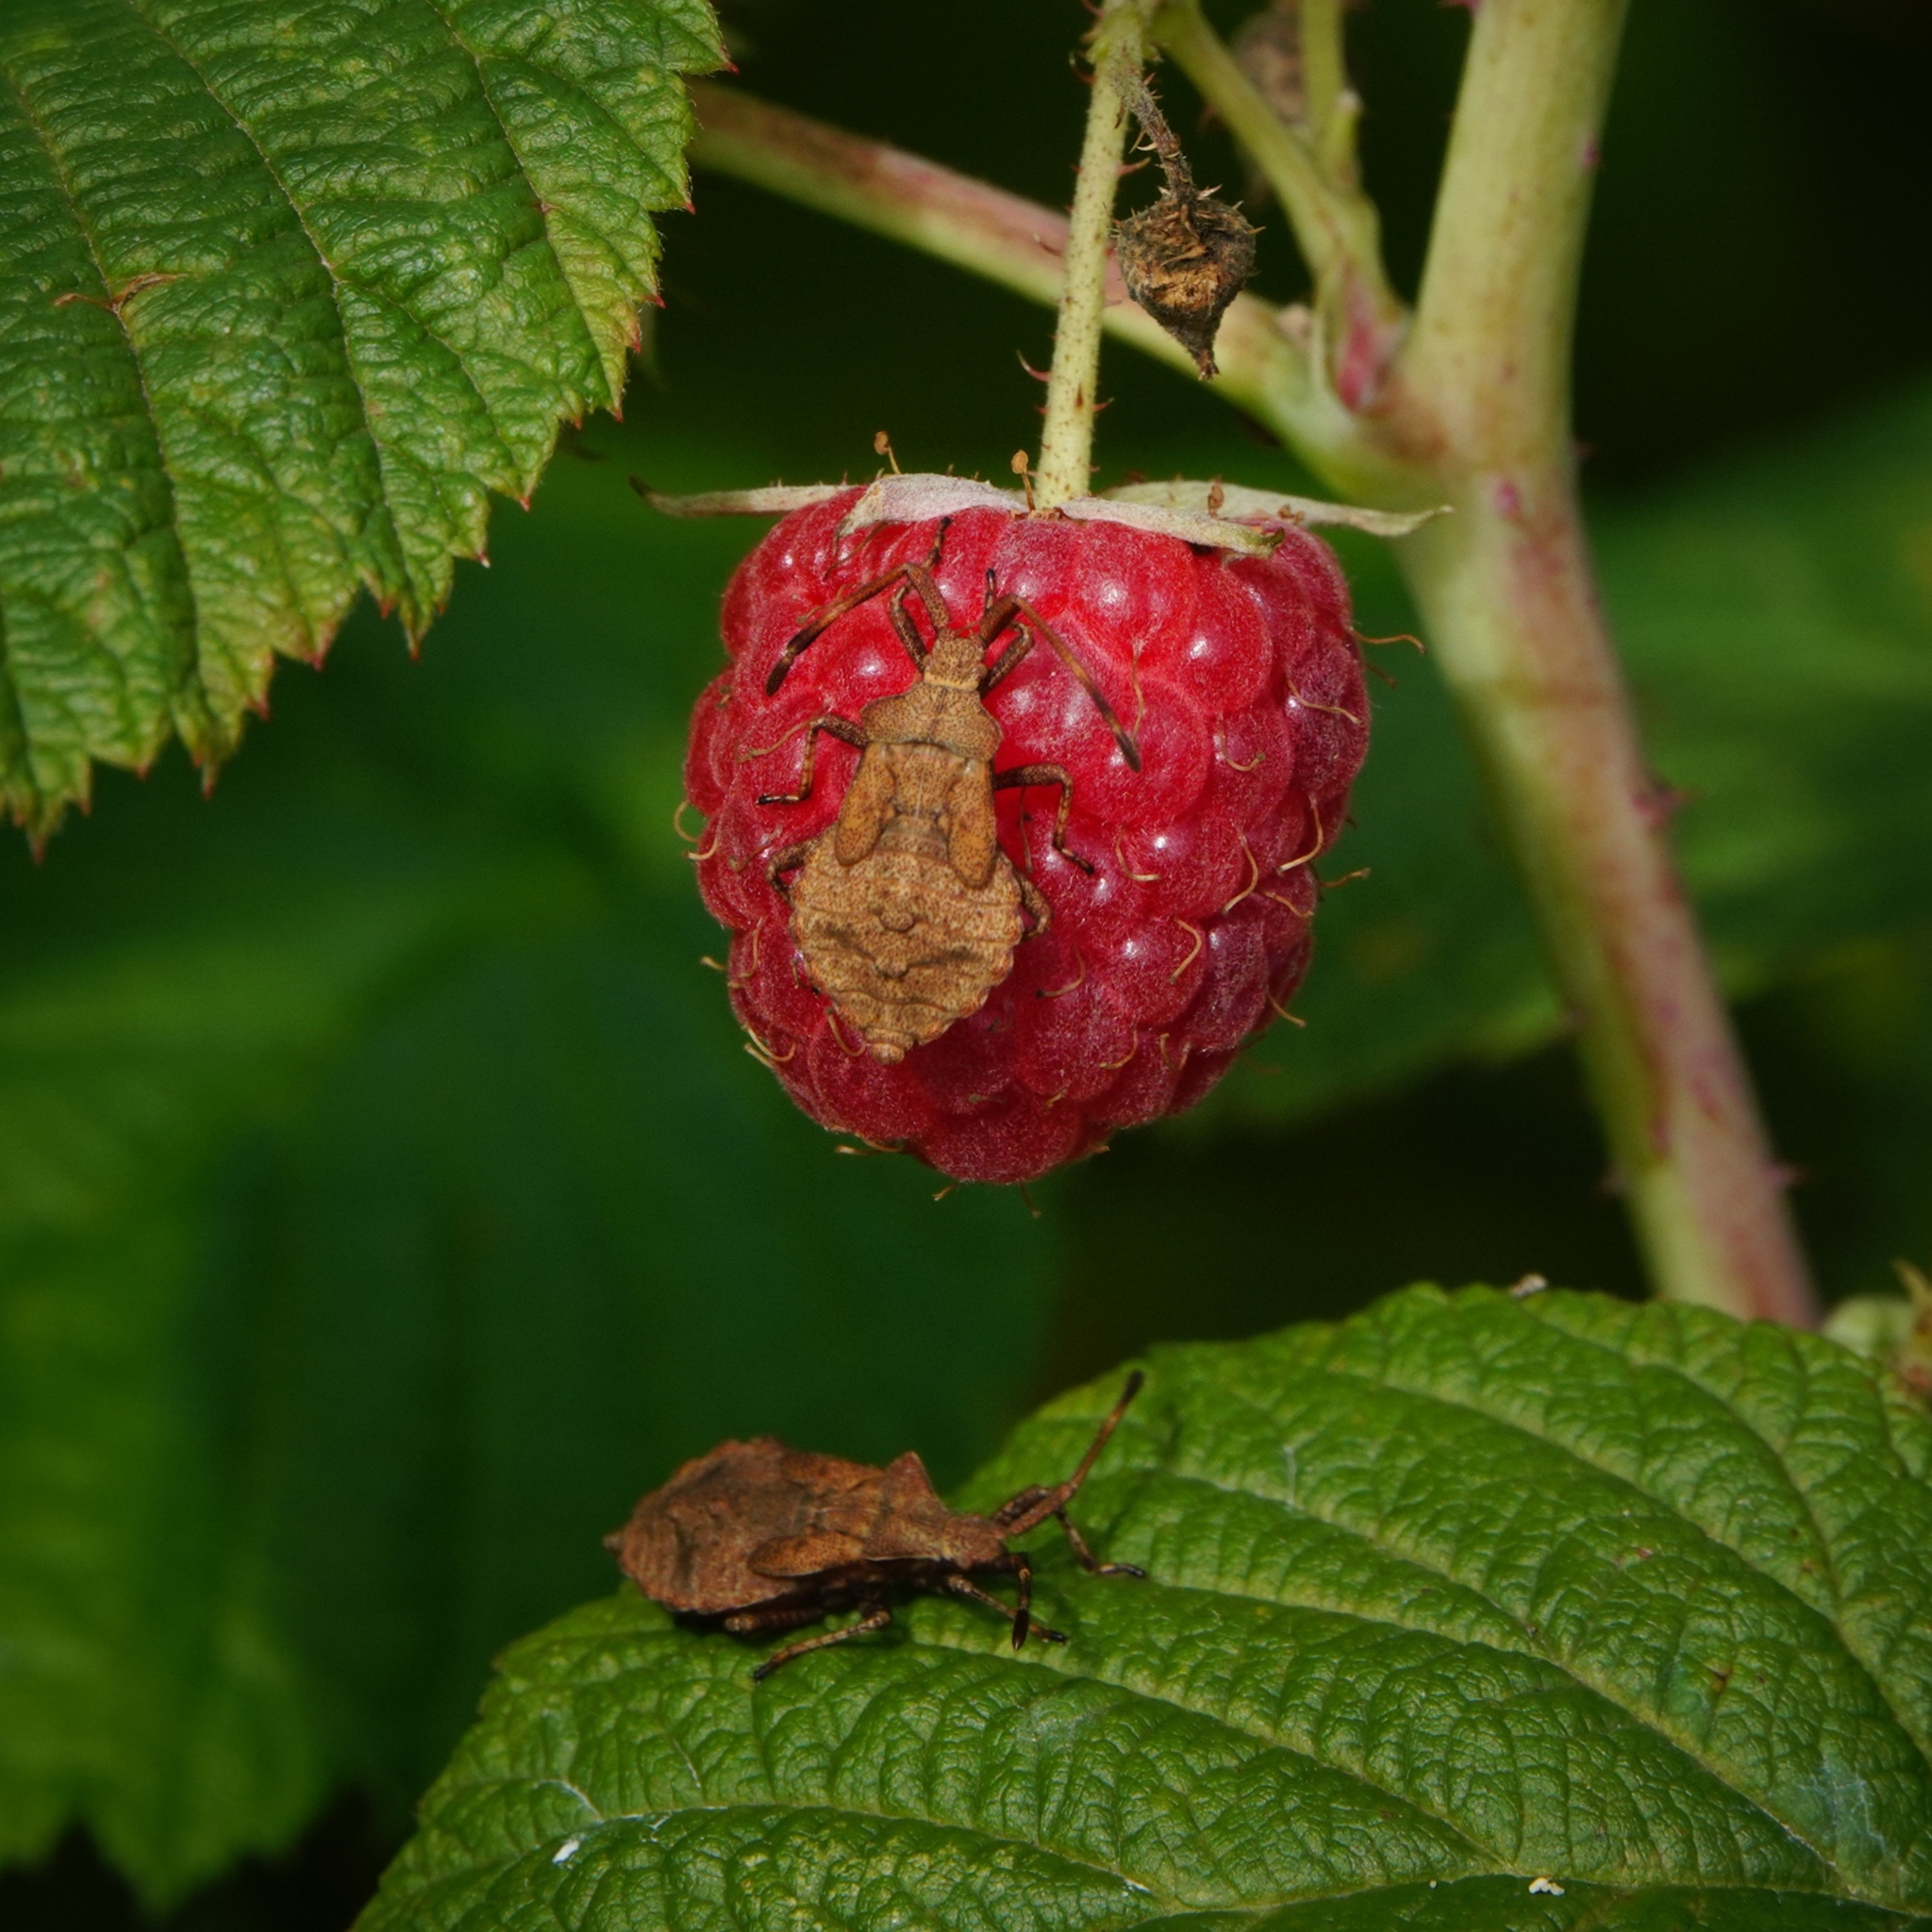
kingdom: Animalia
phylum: Arthropoda
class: Insecta
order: Hemiptera
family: Coreidae
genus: Coreus
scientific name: Coreus marginatus
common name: Dock bug
